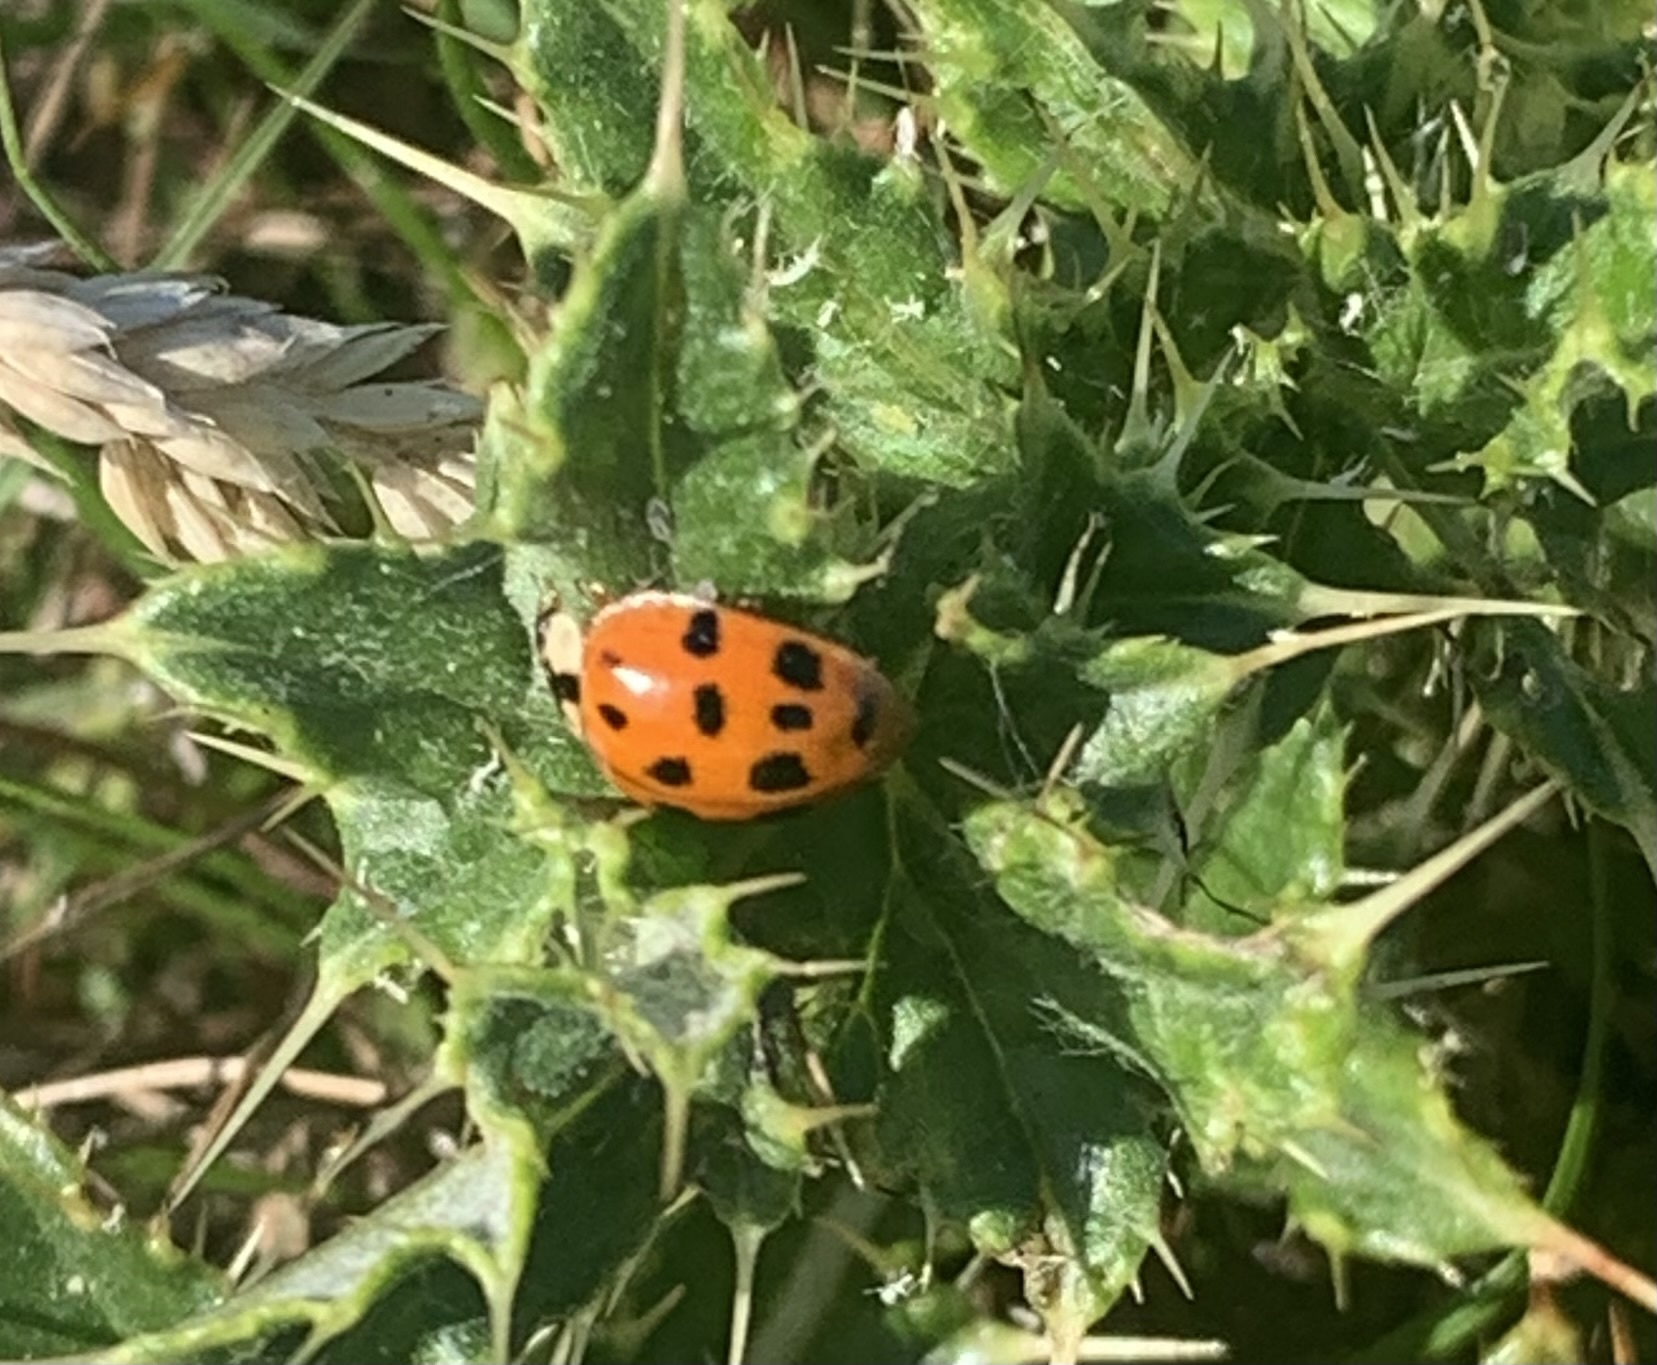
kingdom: Animalia
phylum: Arthropoda
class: Insecta
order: Coleoptera
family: Coccinellidae
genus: Harmonia
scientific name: Harmonia axyridis
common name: Harlequin ladybird
